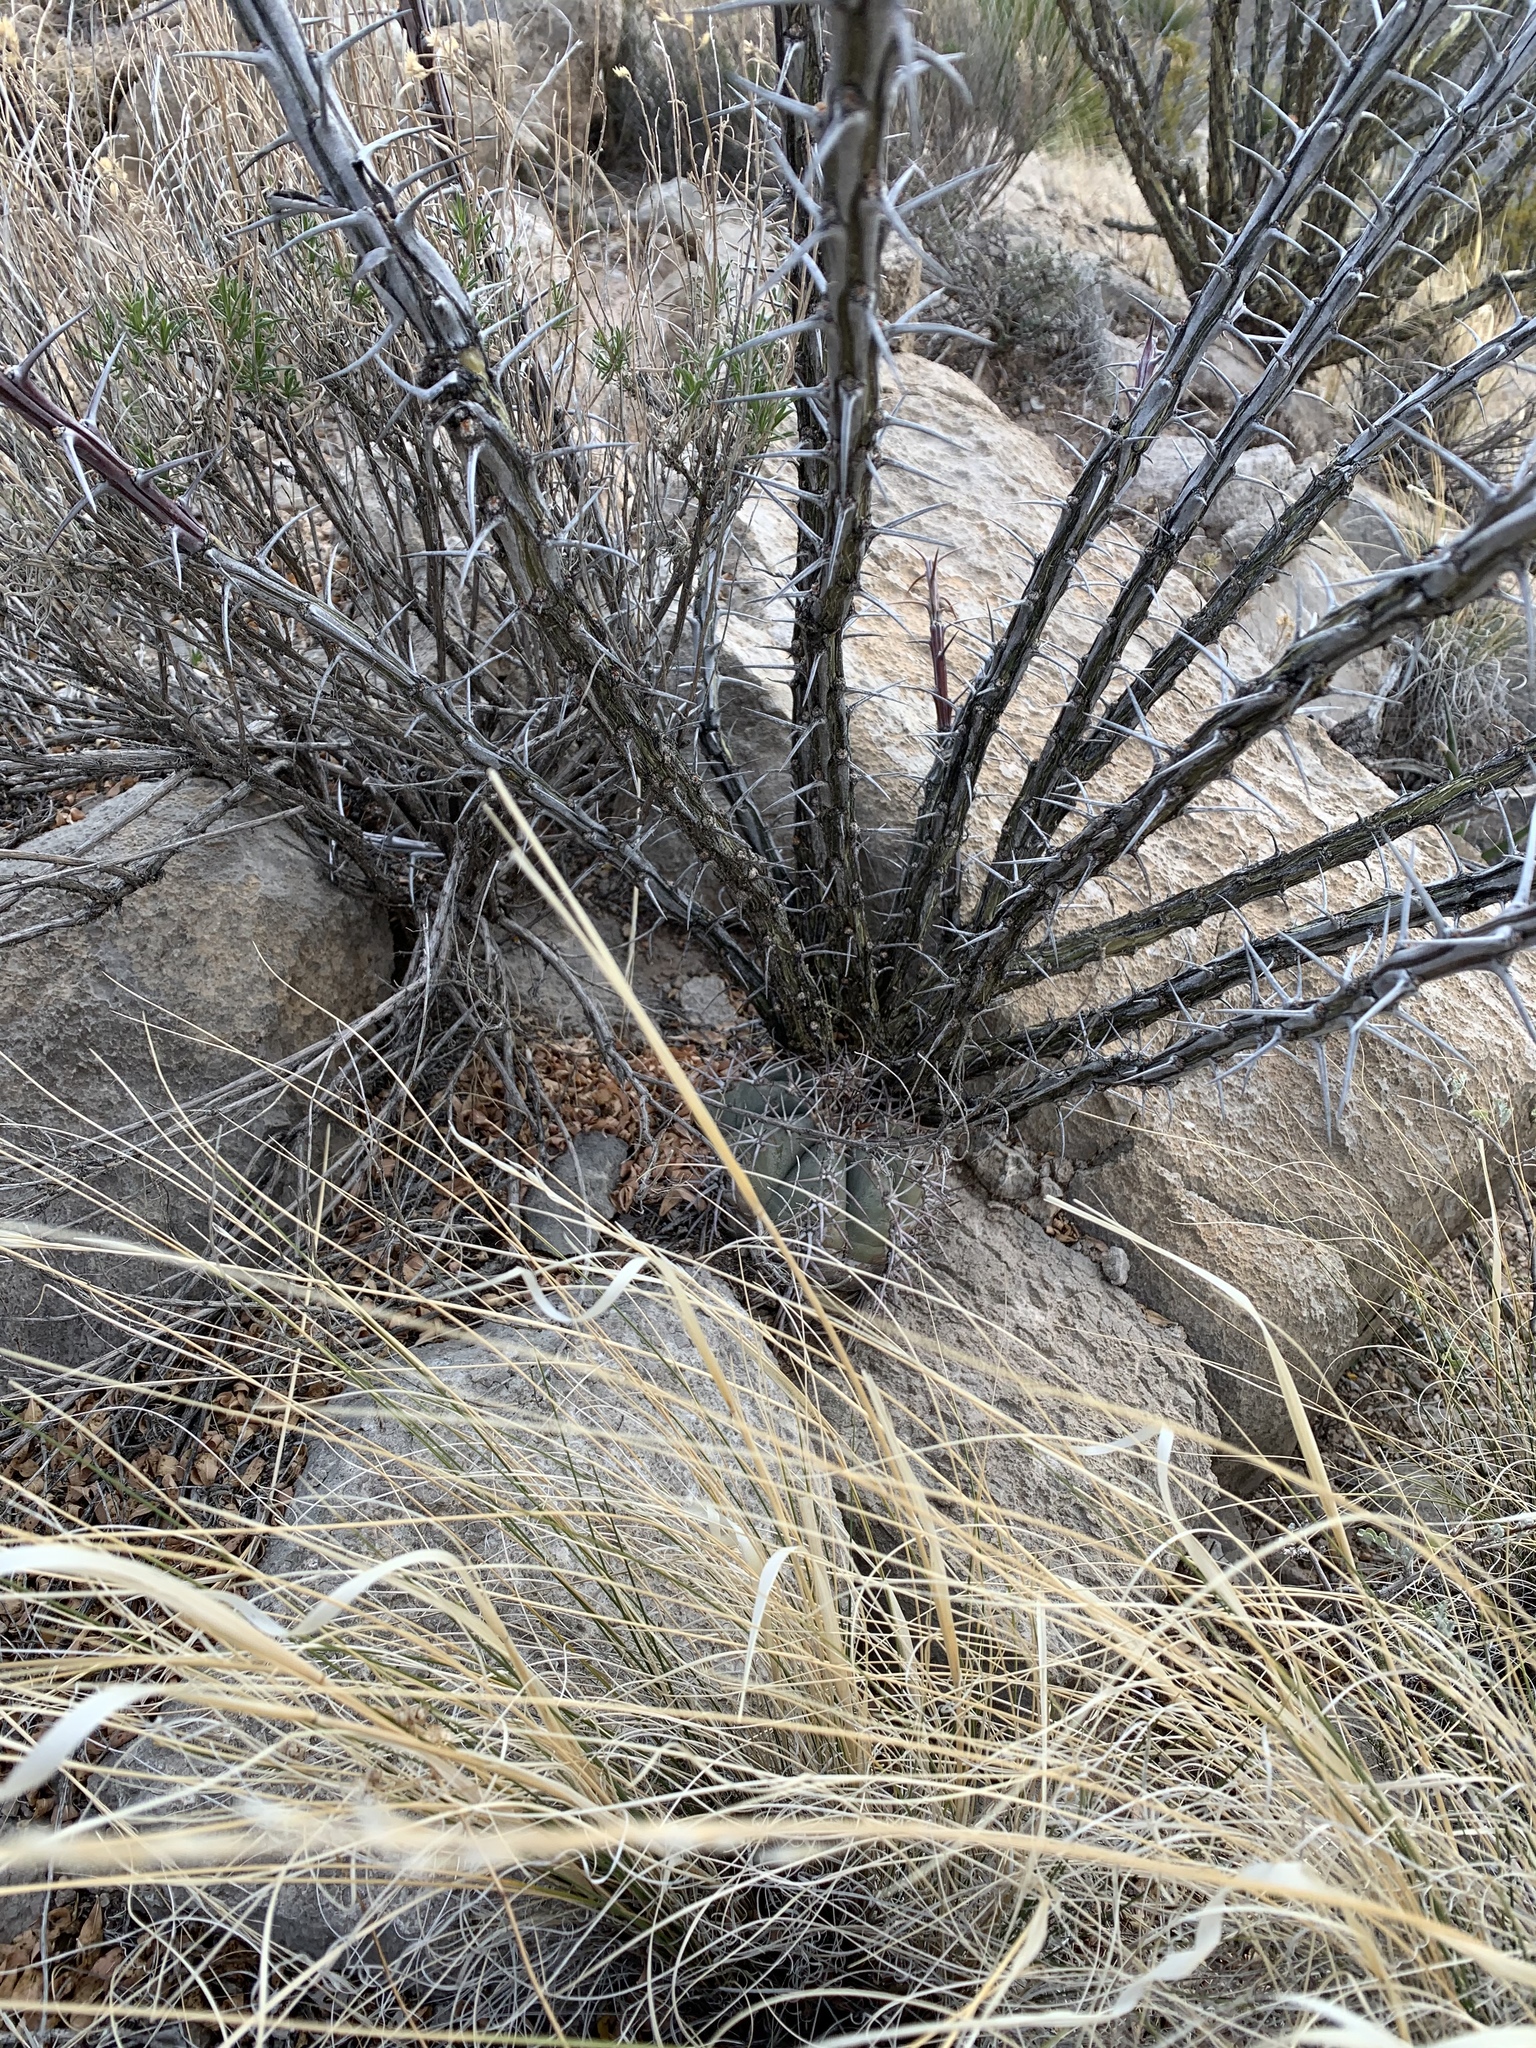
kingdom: Plantae
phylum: Tracheophyta
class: Magnoliopsida
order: Caryophyllales
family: Cactaceae
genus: Echinocactus
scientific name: Echinocactus horizonthalonius
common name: Devilshead
